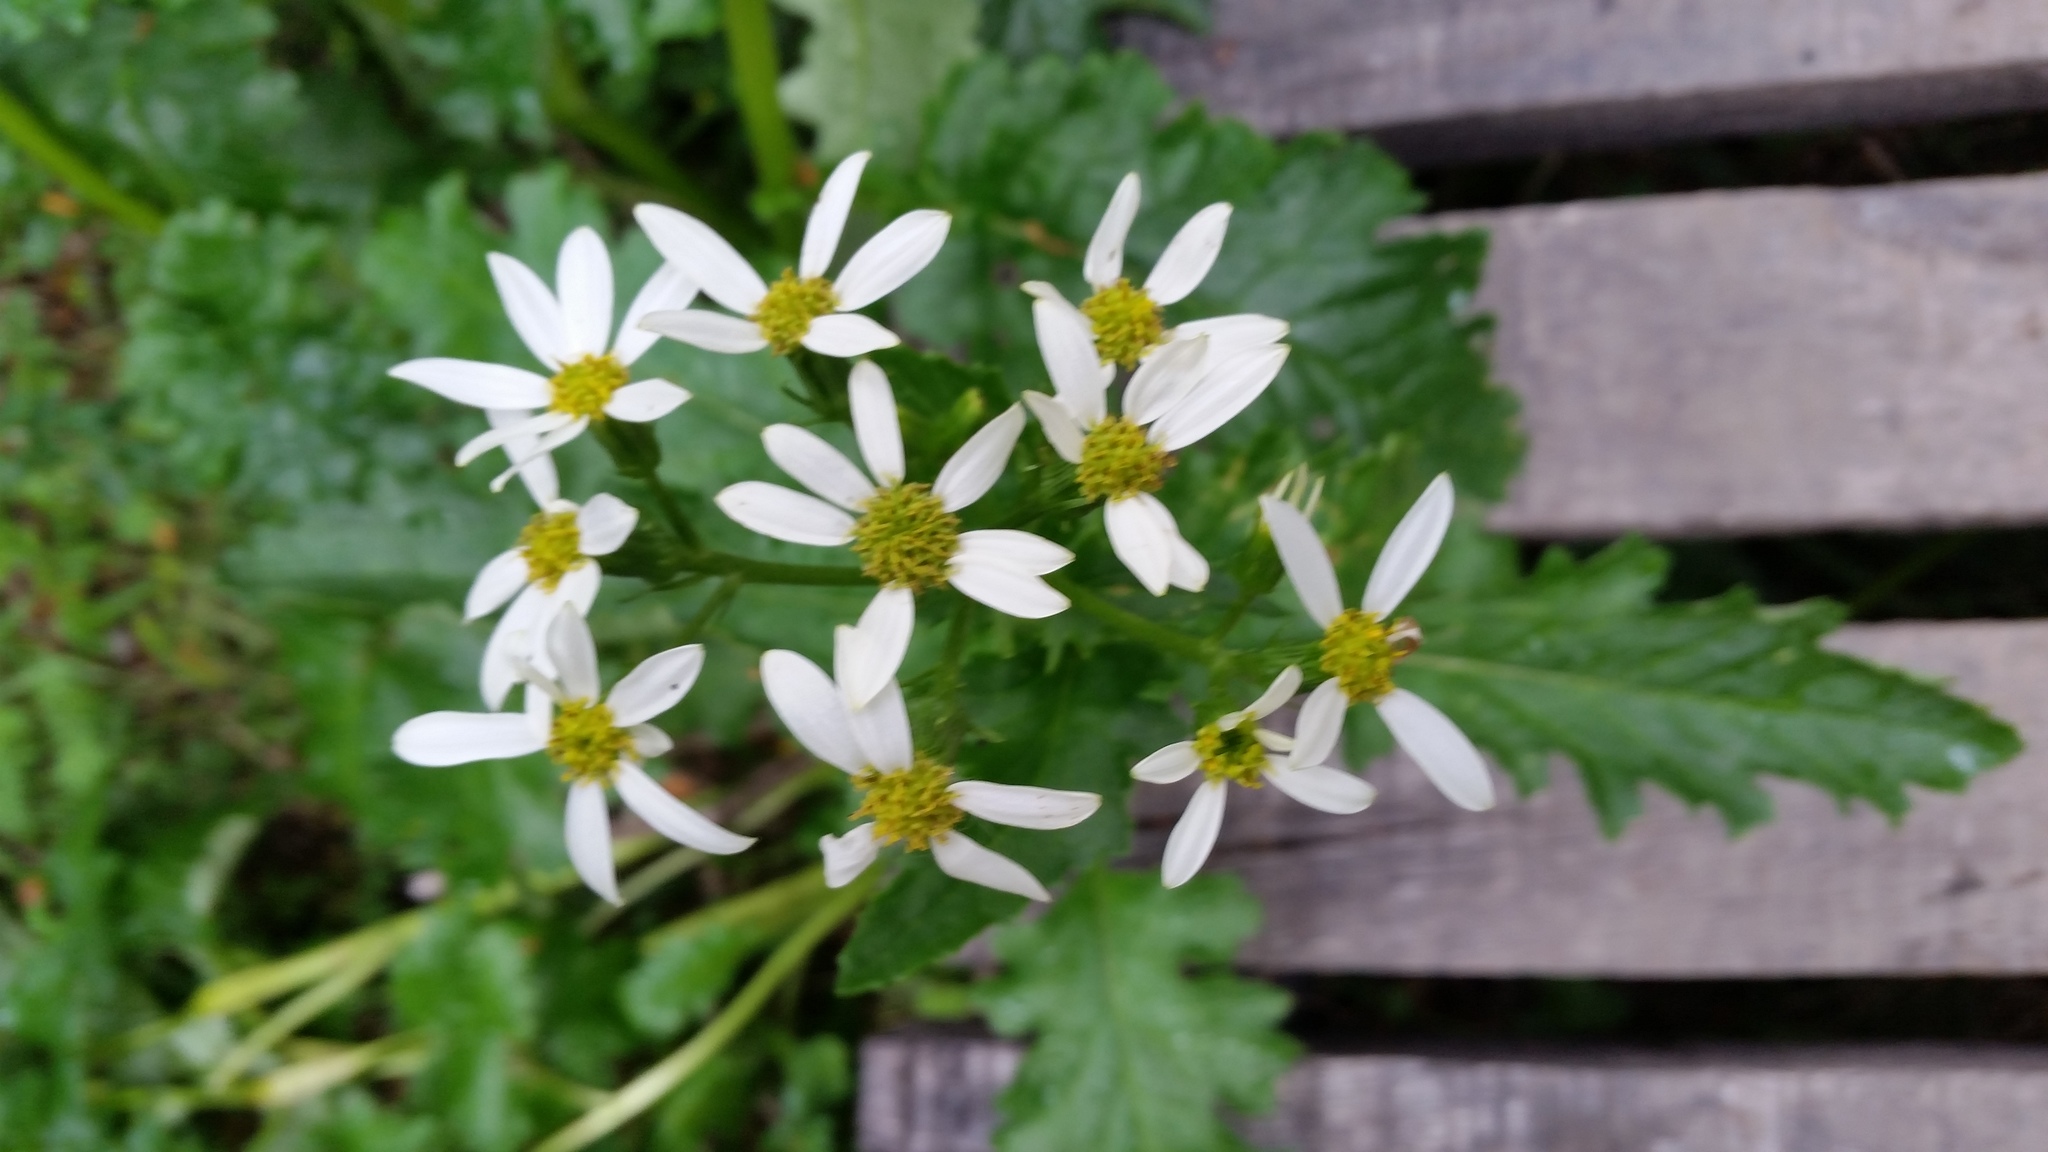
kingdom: Plantae
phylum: Tracheophyta
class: Magnoliopsida
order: Asterales
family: Asteraceae
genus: Iocenes
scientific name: Iocenes virens
